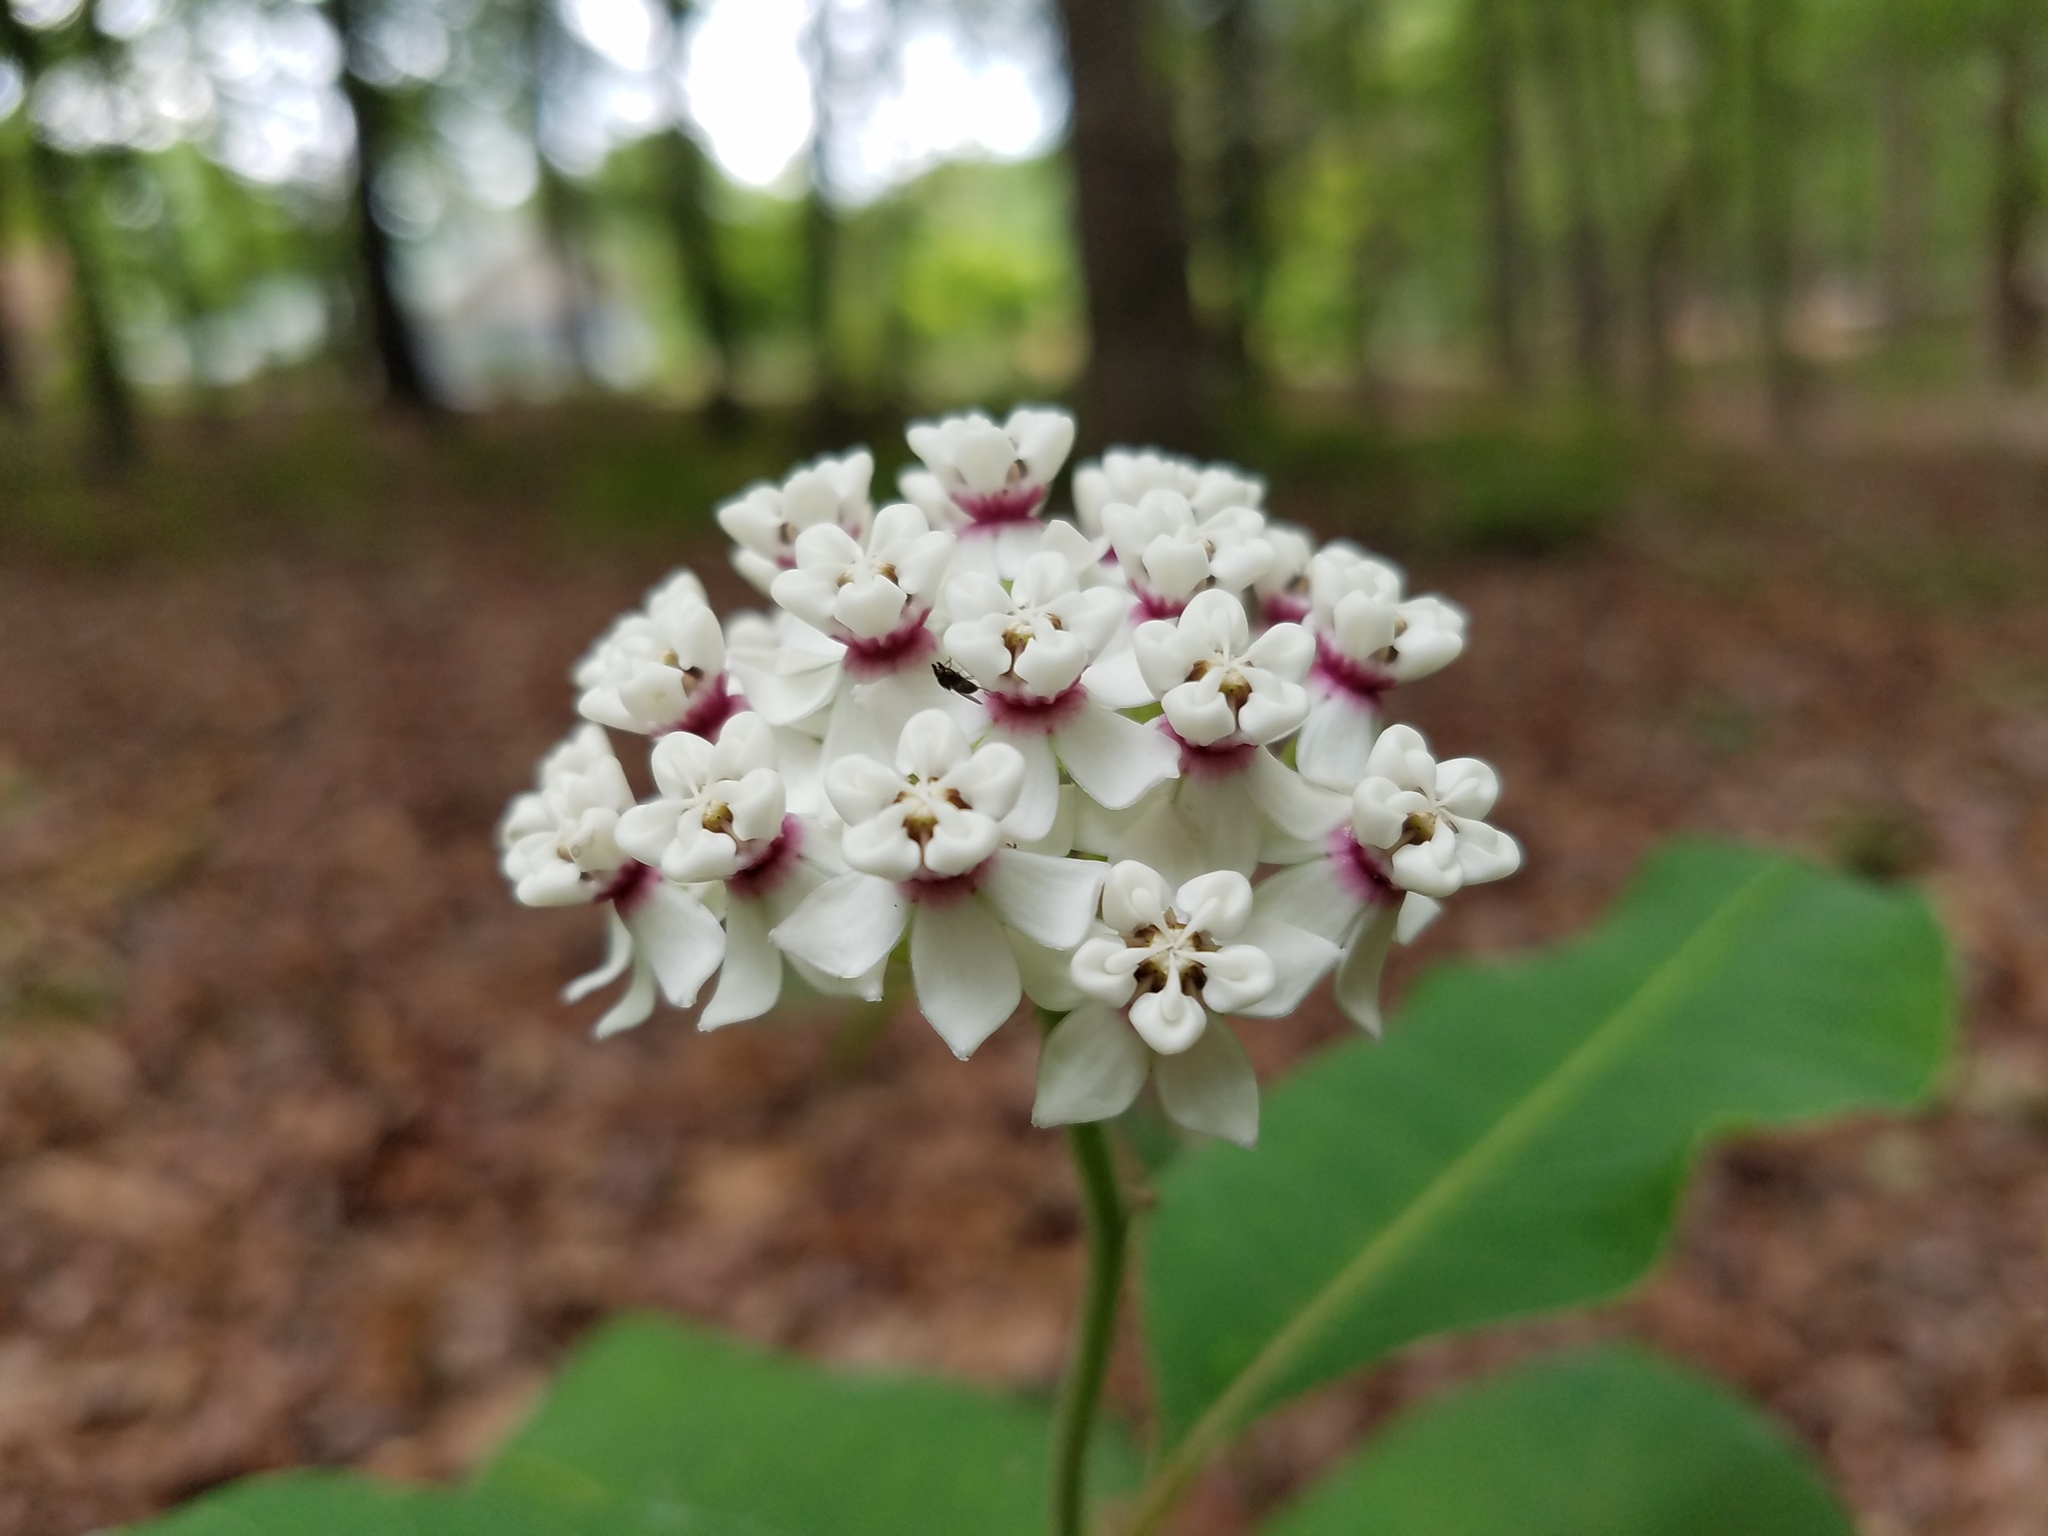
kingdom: Plantae
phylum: Tracheophyta
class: Magnoliopsida
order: Gentianales
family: Apocynaceae
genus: Asclepias
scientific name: Asclepias variegata
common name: Variegated milkweed
